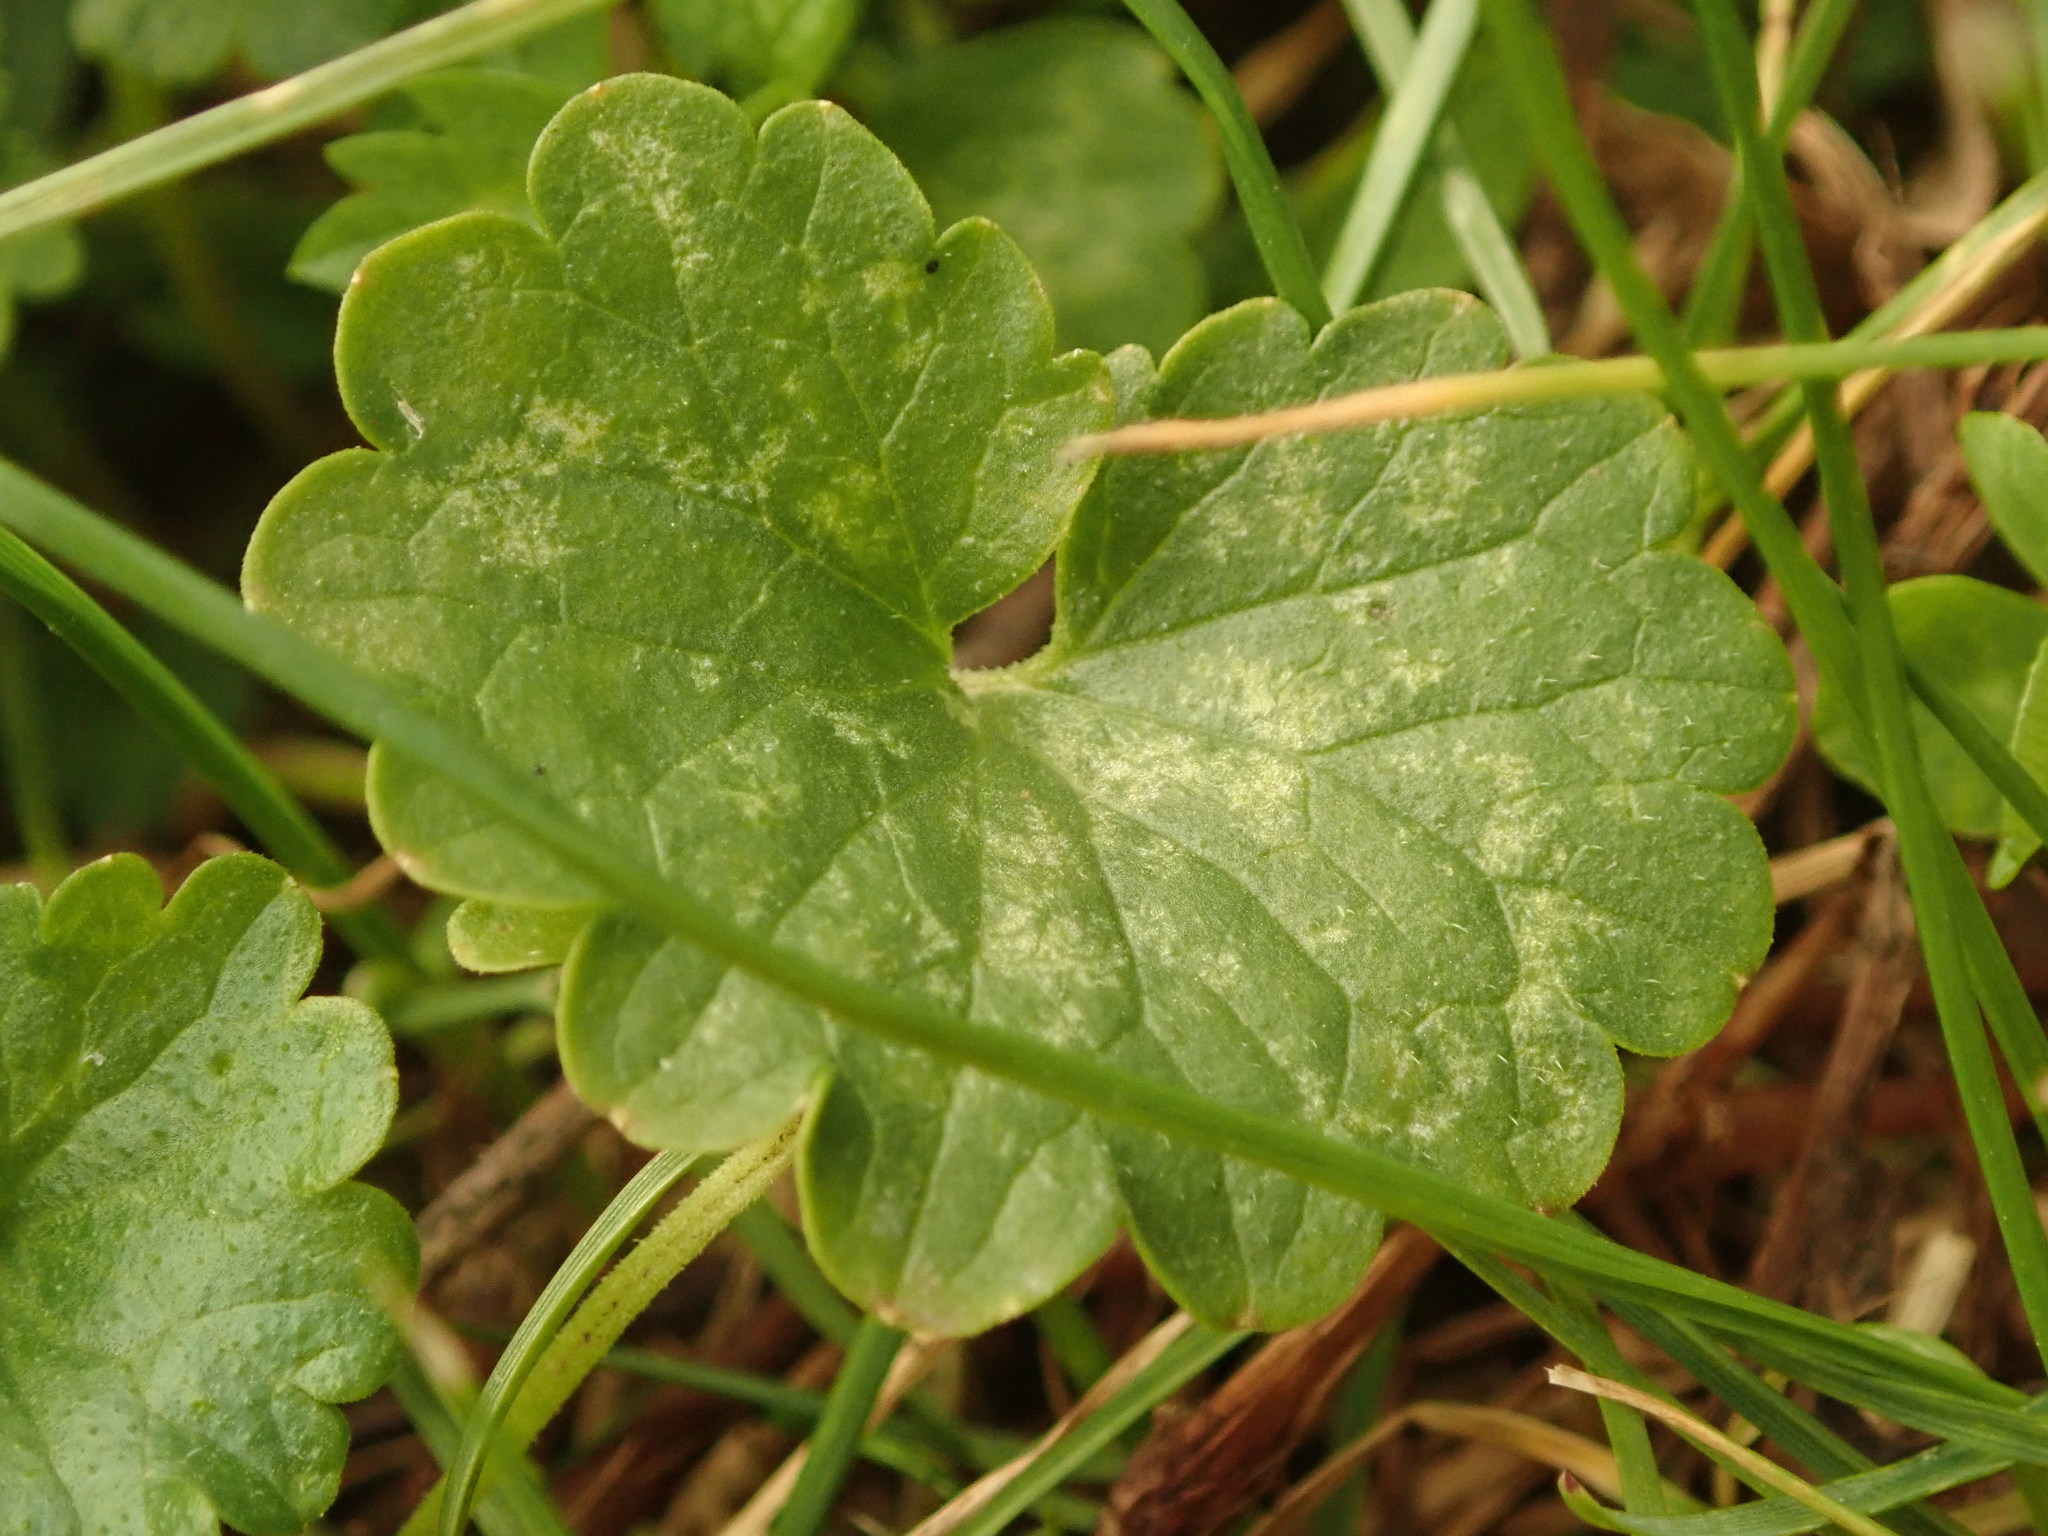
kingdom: Plantae
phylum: Tracheophyta
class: Magnoliopsida
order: Lamiales
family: Lamiaceae
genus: Glechoma
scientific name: Glechoma hederacea
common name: Ground ivy
